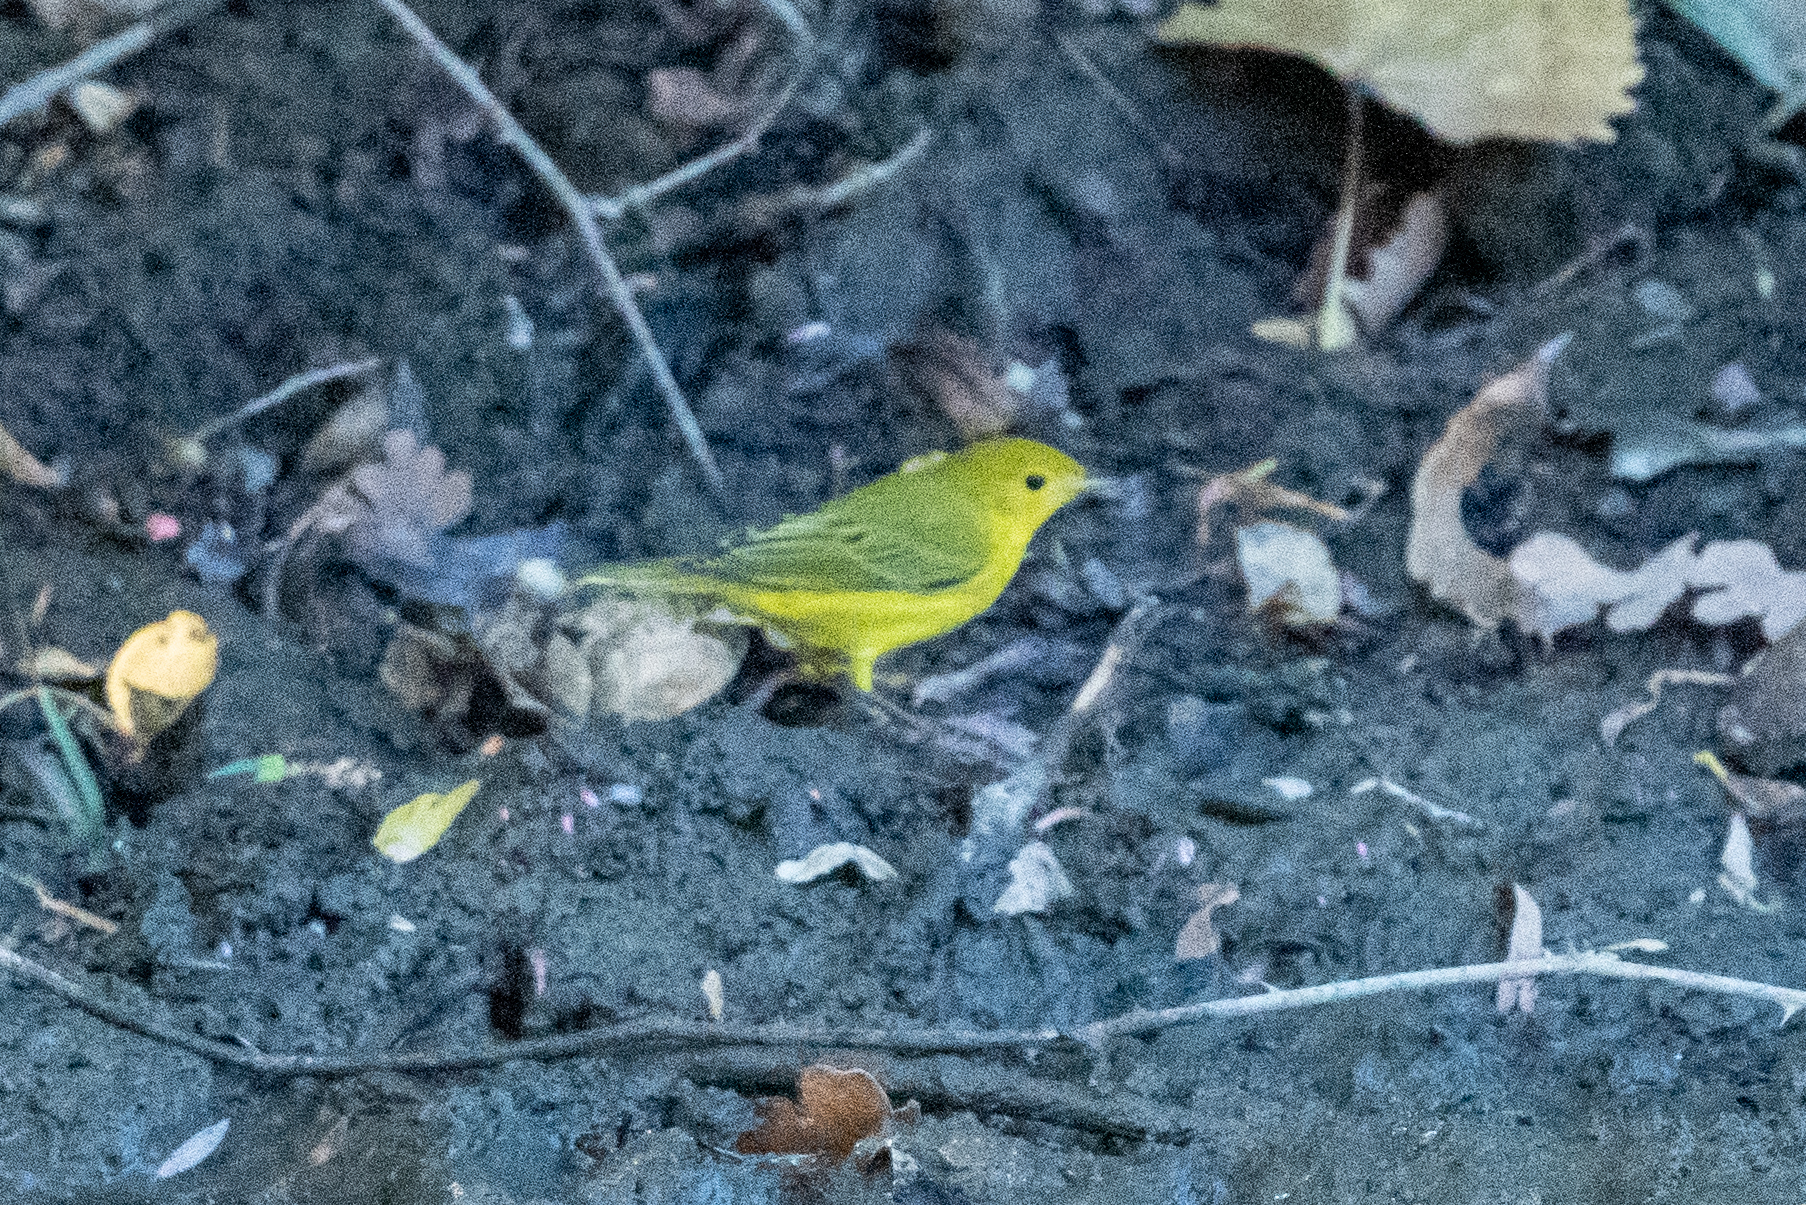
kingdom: Animalia
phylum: Chordata
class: Aves
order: Passeriformes
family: Parulidae
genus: Setophaga
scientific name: Setophaga petechia
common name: Yellow warbler
